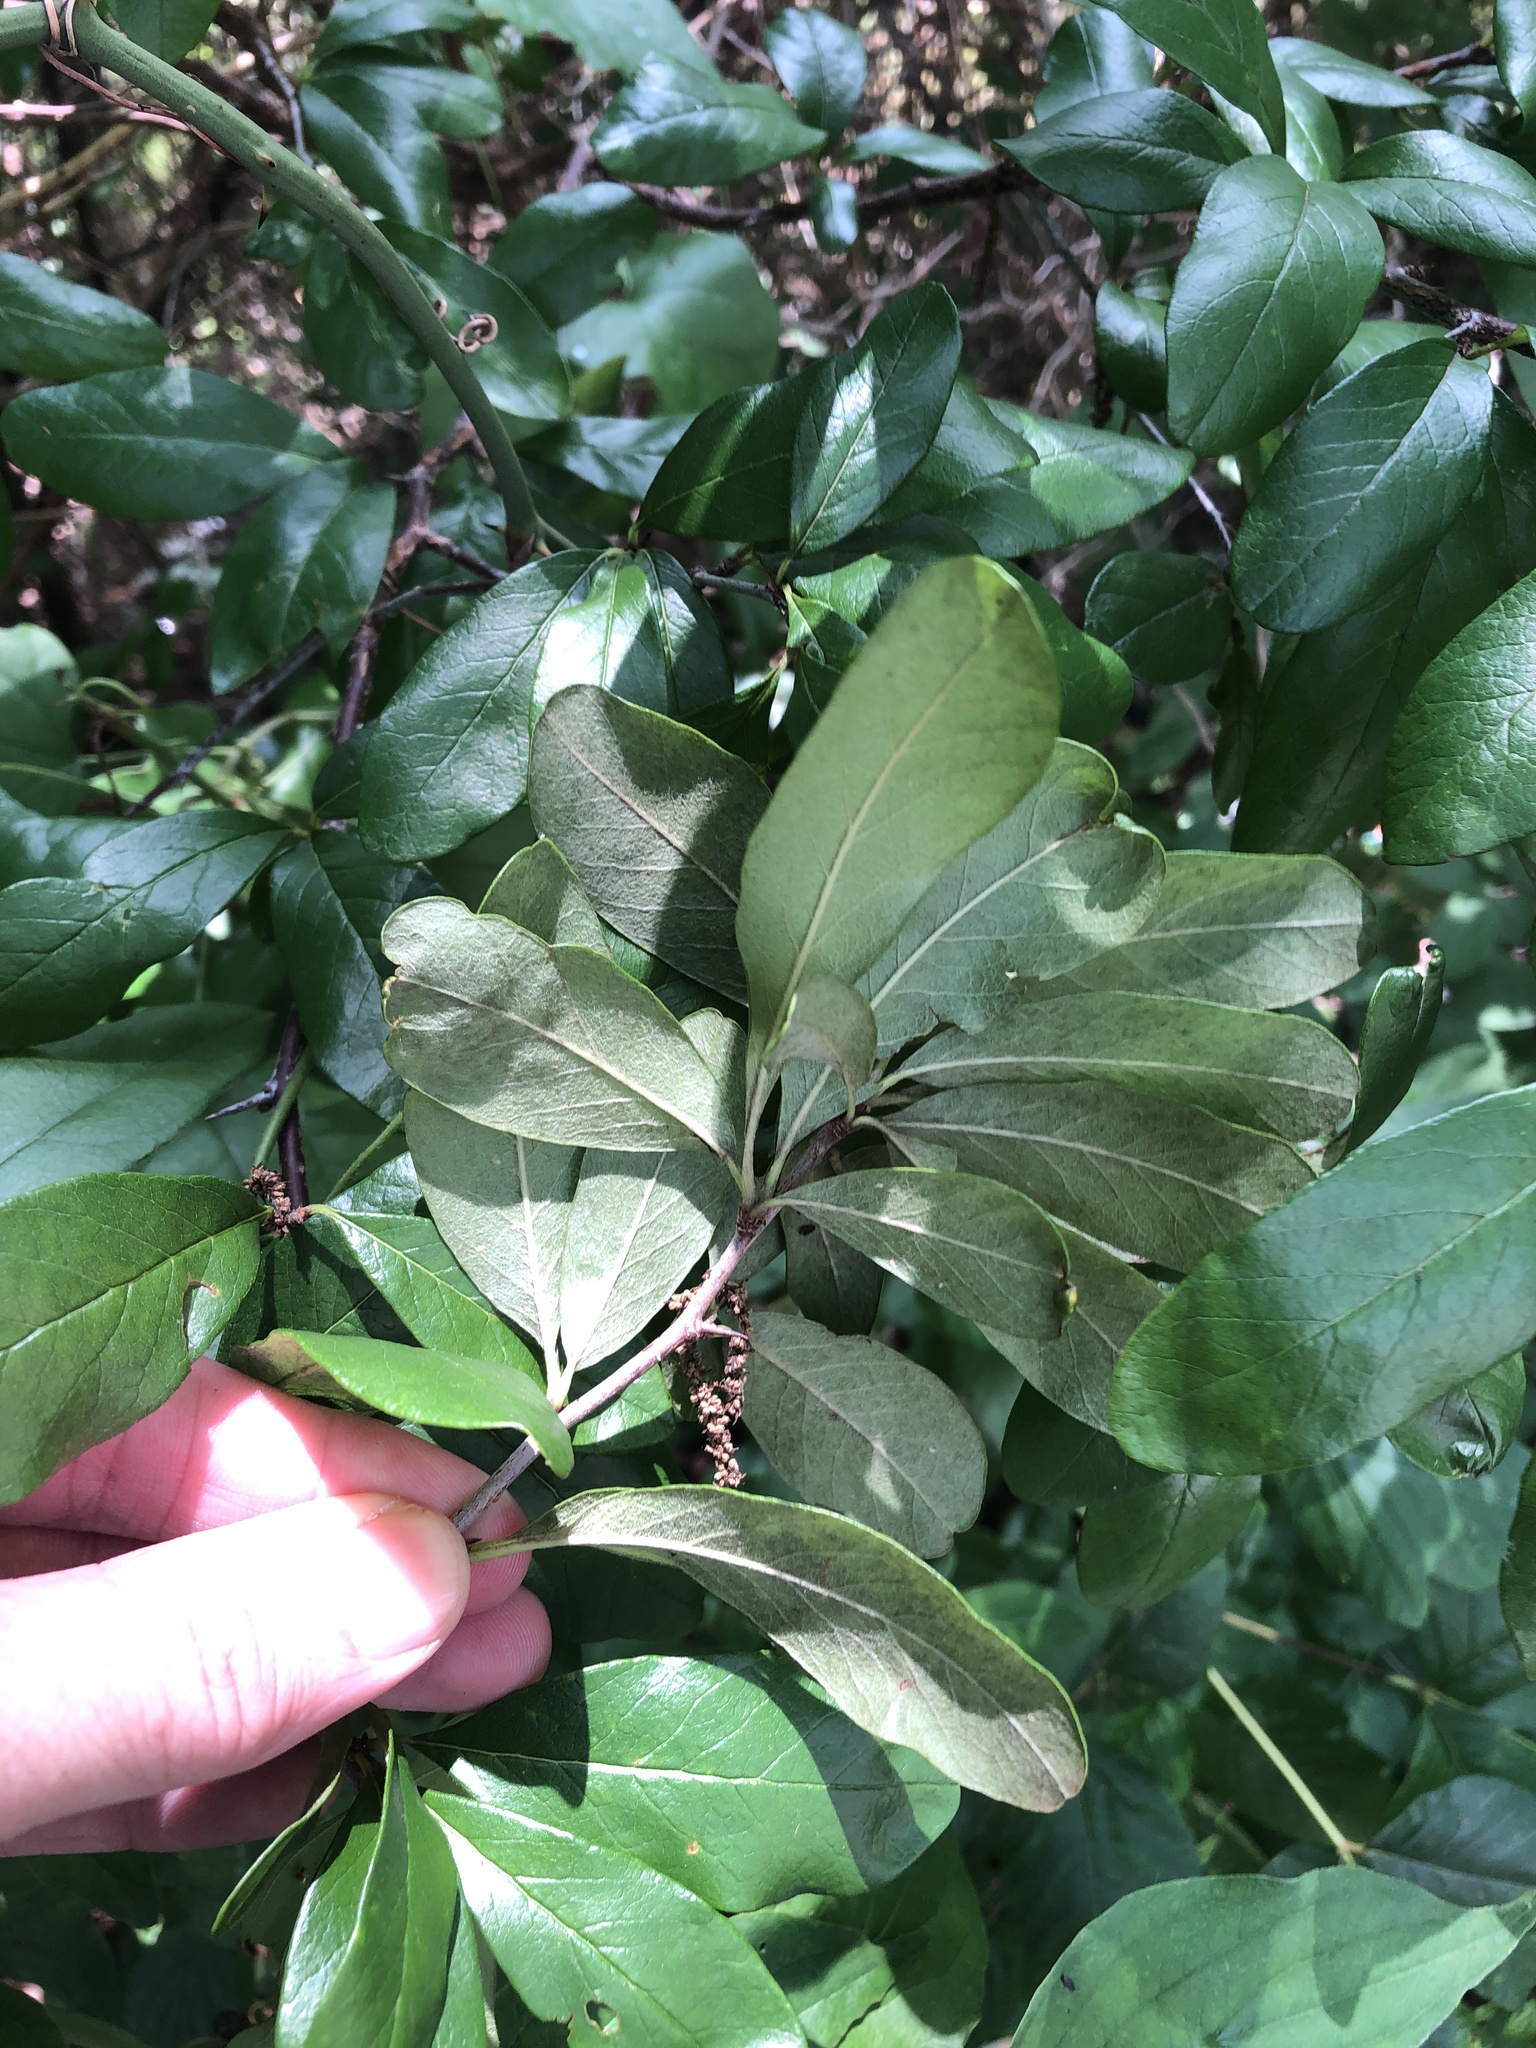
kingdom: Plantae
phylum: Tracheophyta
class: Magnoliopsida
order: Ericales
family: Sapotaceae
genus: Sideroxylon
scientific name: Sideroxylon lanuginosum
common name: Chittamwood
